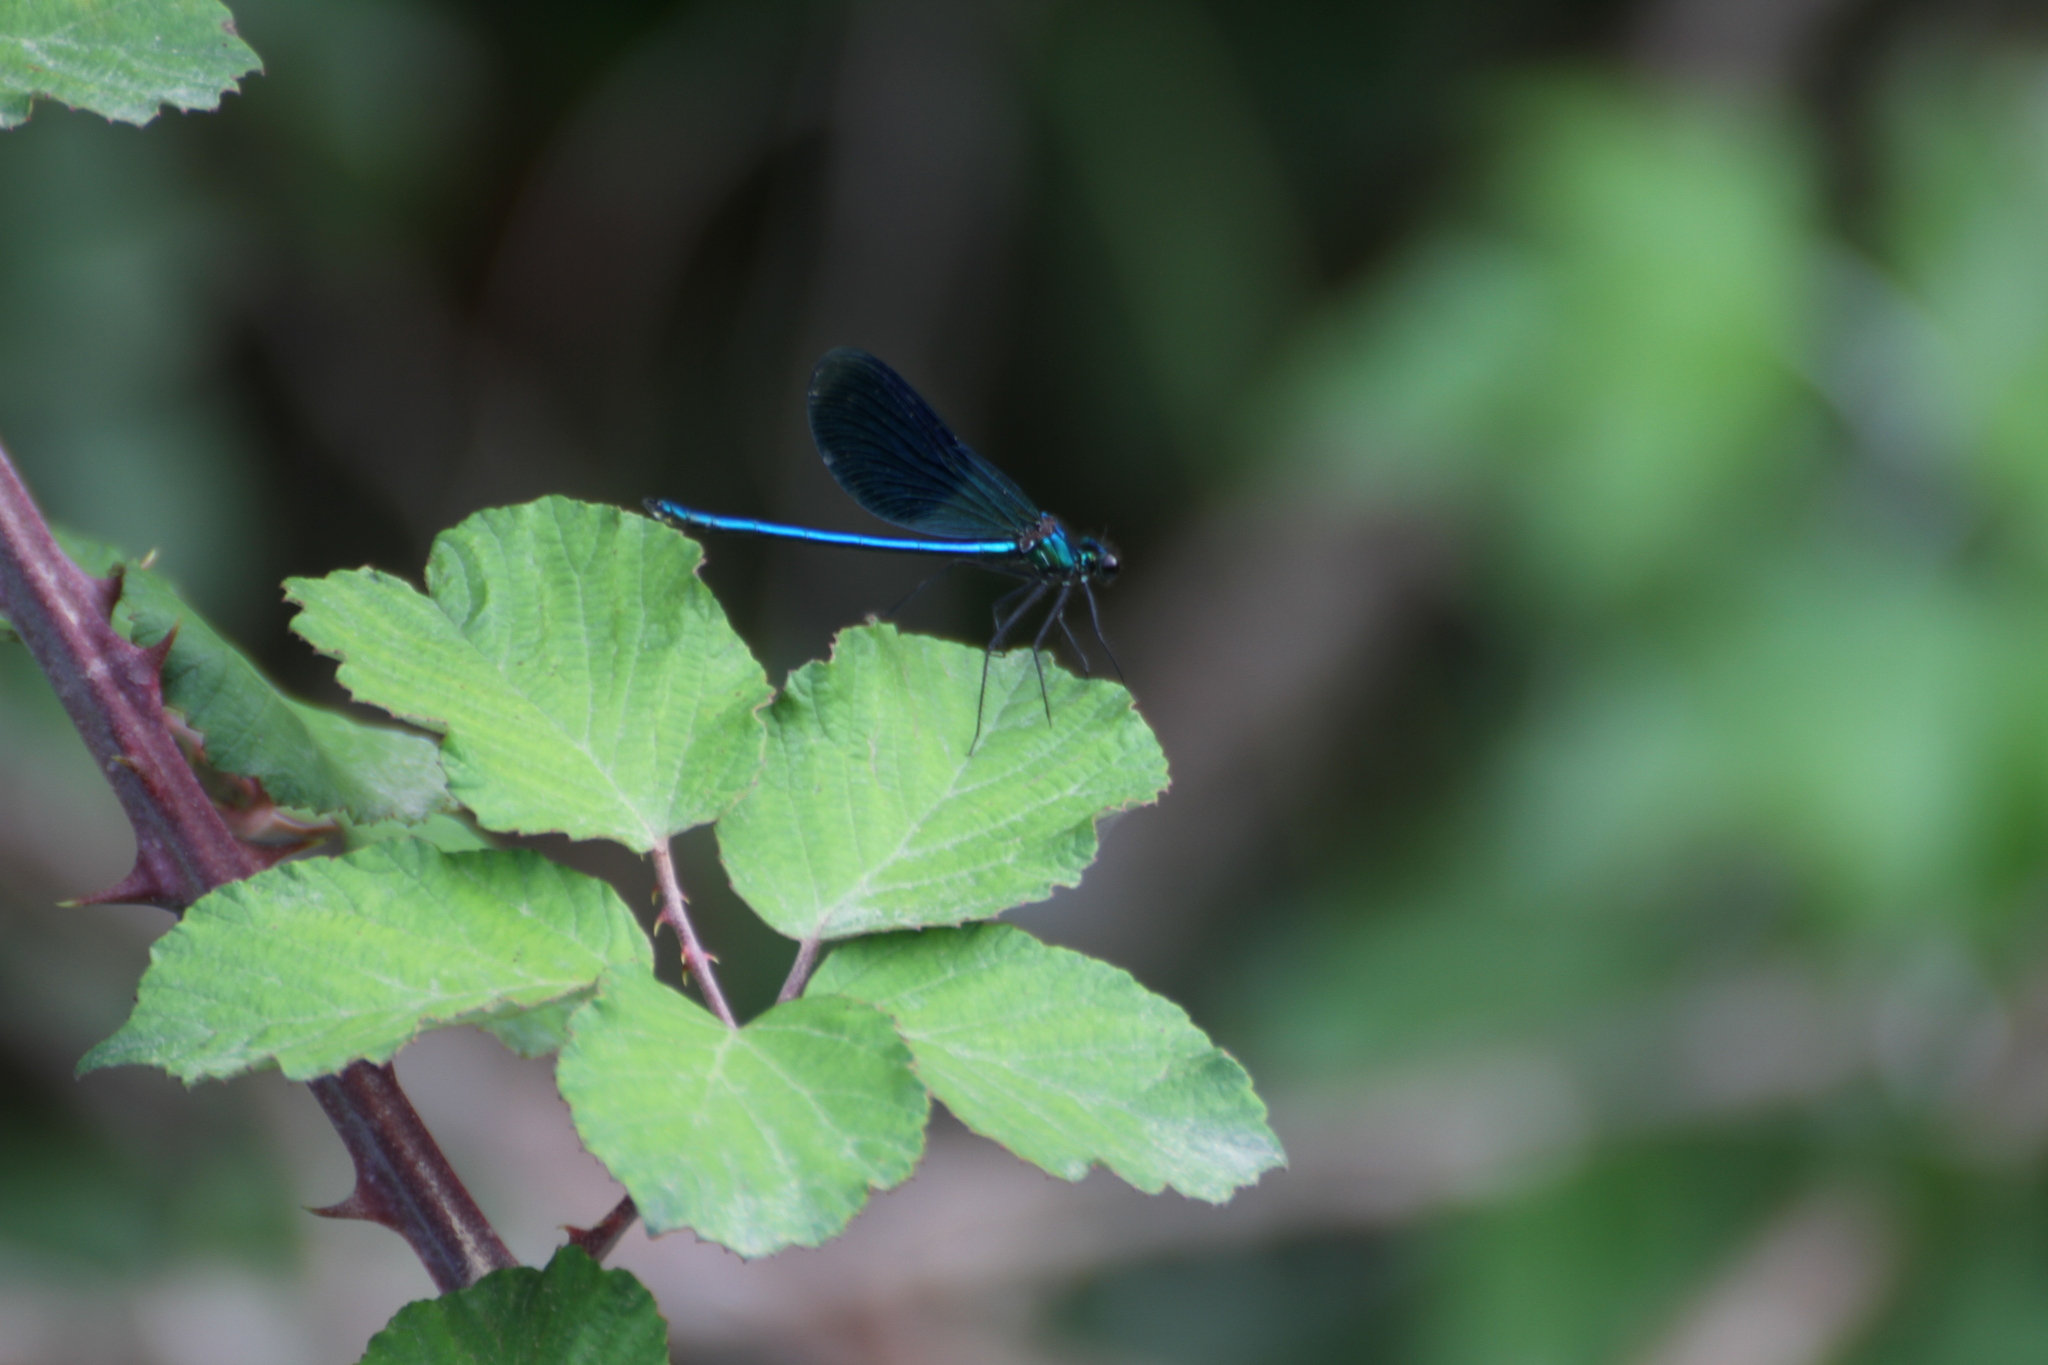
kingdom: Animalia
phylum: Arthropoda
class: Insecta
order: Odonata
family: Calopterygidae
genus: Calopteryx
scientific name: Calopteryx splendens
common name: Banded demoiselle
